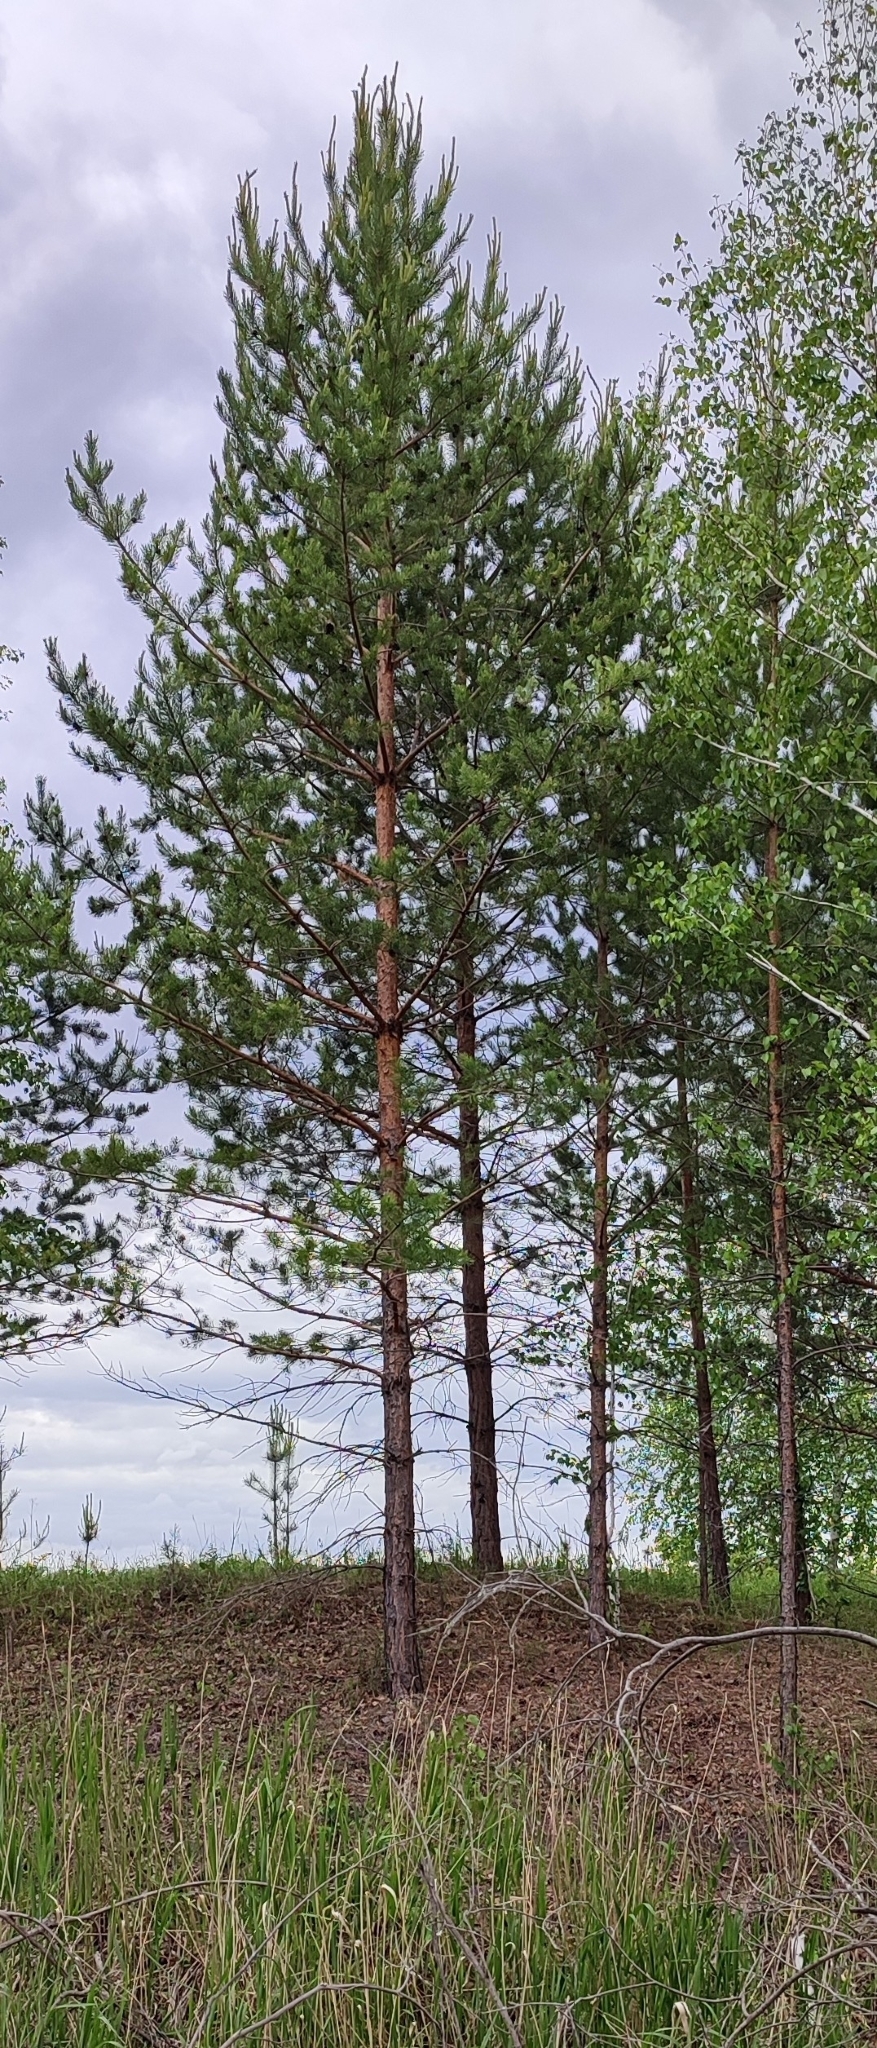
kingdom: Plantae
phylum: Tracheophyta
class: Pinopsida
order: Pinales
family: Pinaceae
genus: Pinus
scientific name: Pinus sylvestris
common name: Scots pine
